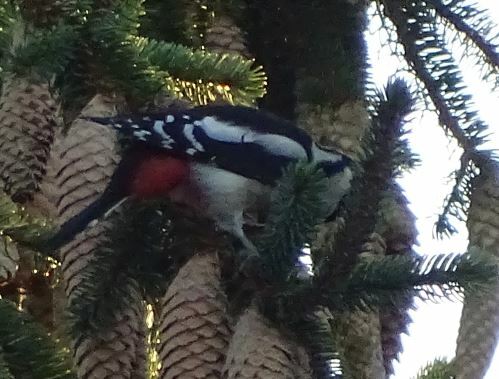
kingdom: Animalia
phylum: Chordata
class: Aves
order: Piciformes
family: Picidae
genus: Dendrocopos
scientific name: Dendrocopos major
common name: Great spotted woodpecker
